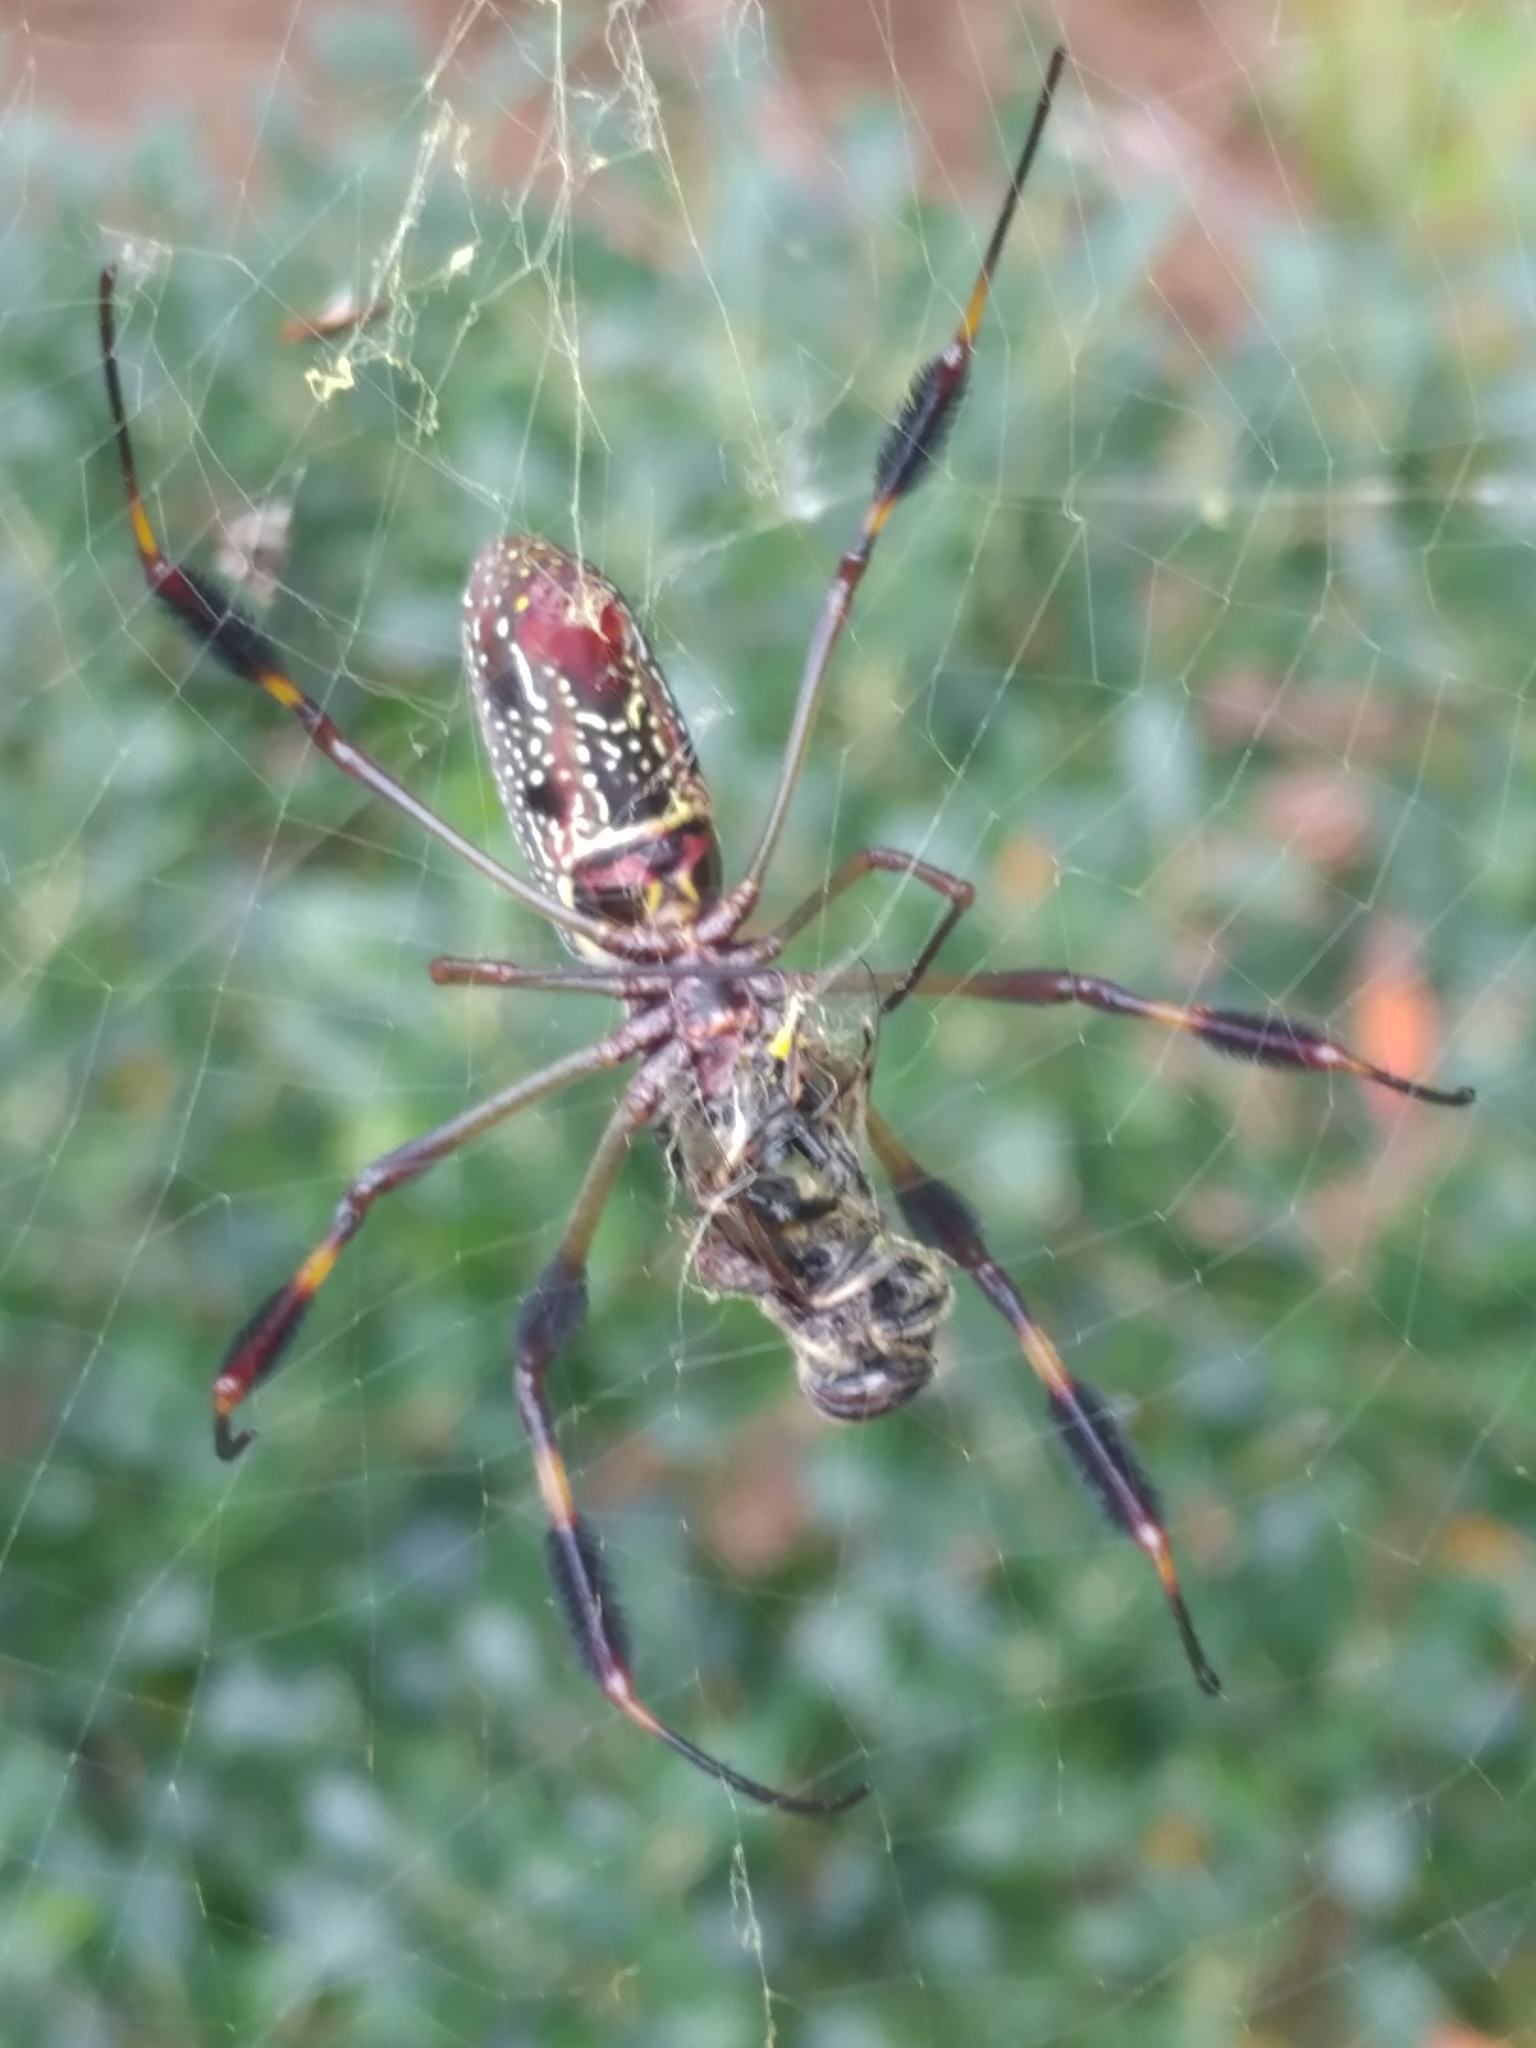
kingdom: Animalia
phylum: Arthropoda
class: Arachnida
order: Araneae
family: Araneidae
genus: Trichonephila
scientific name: Trichonephila clavipes
